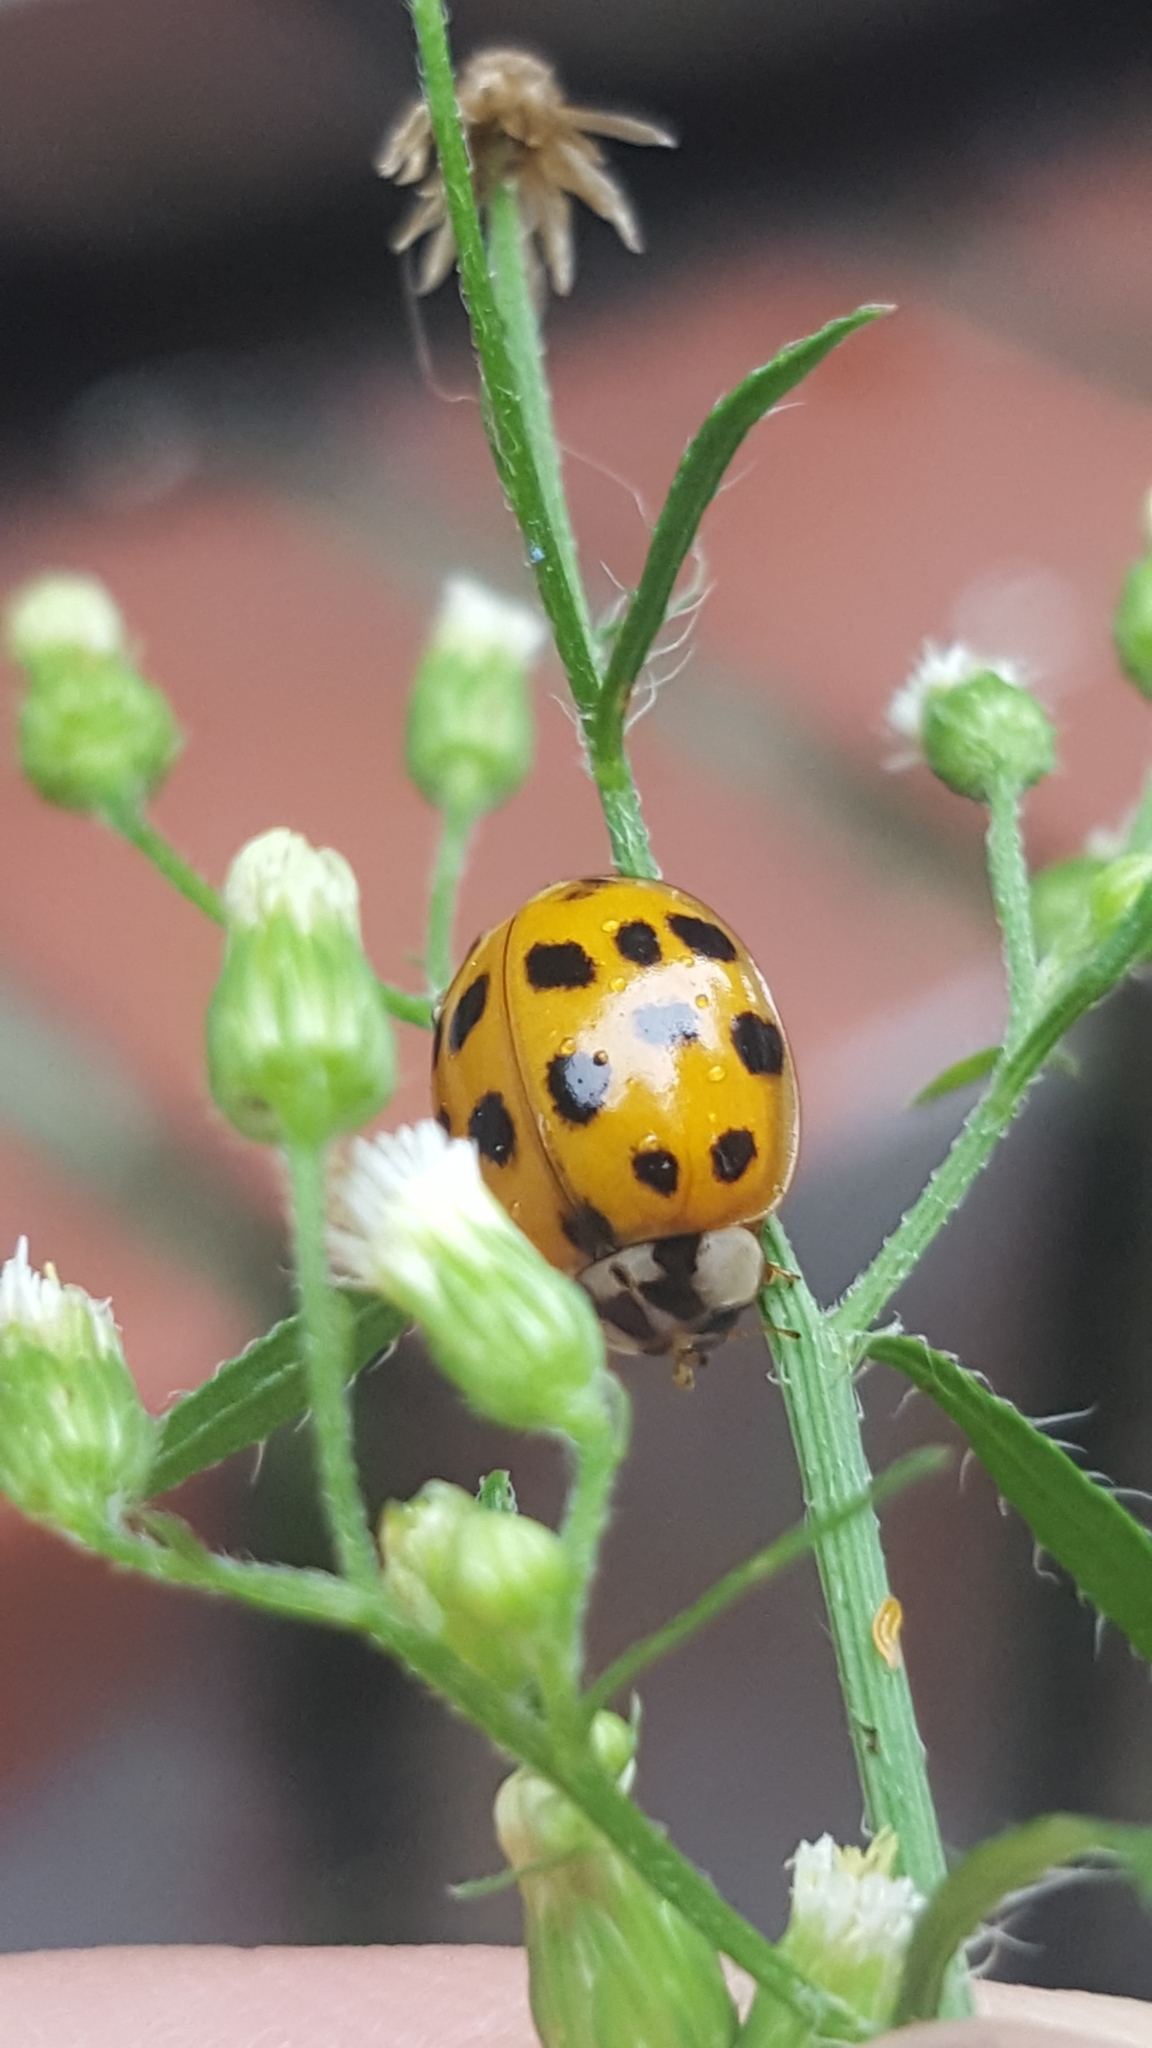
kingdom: Animalia
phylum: Arthropoda
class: Insecta
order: Coleoptera
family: Coccinellidae
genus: Harmonia
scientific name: Harmonia axyridis
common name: Harlequin ladybird
